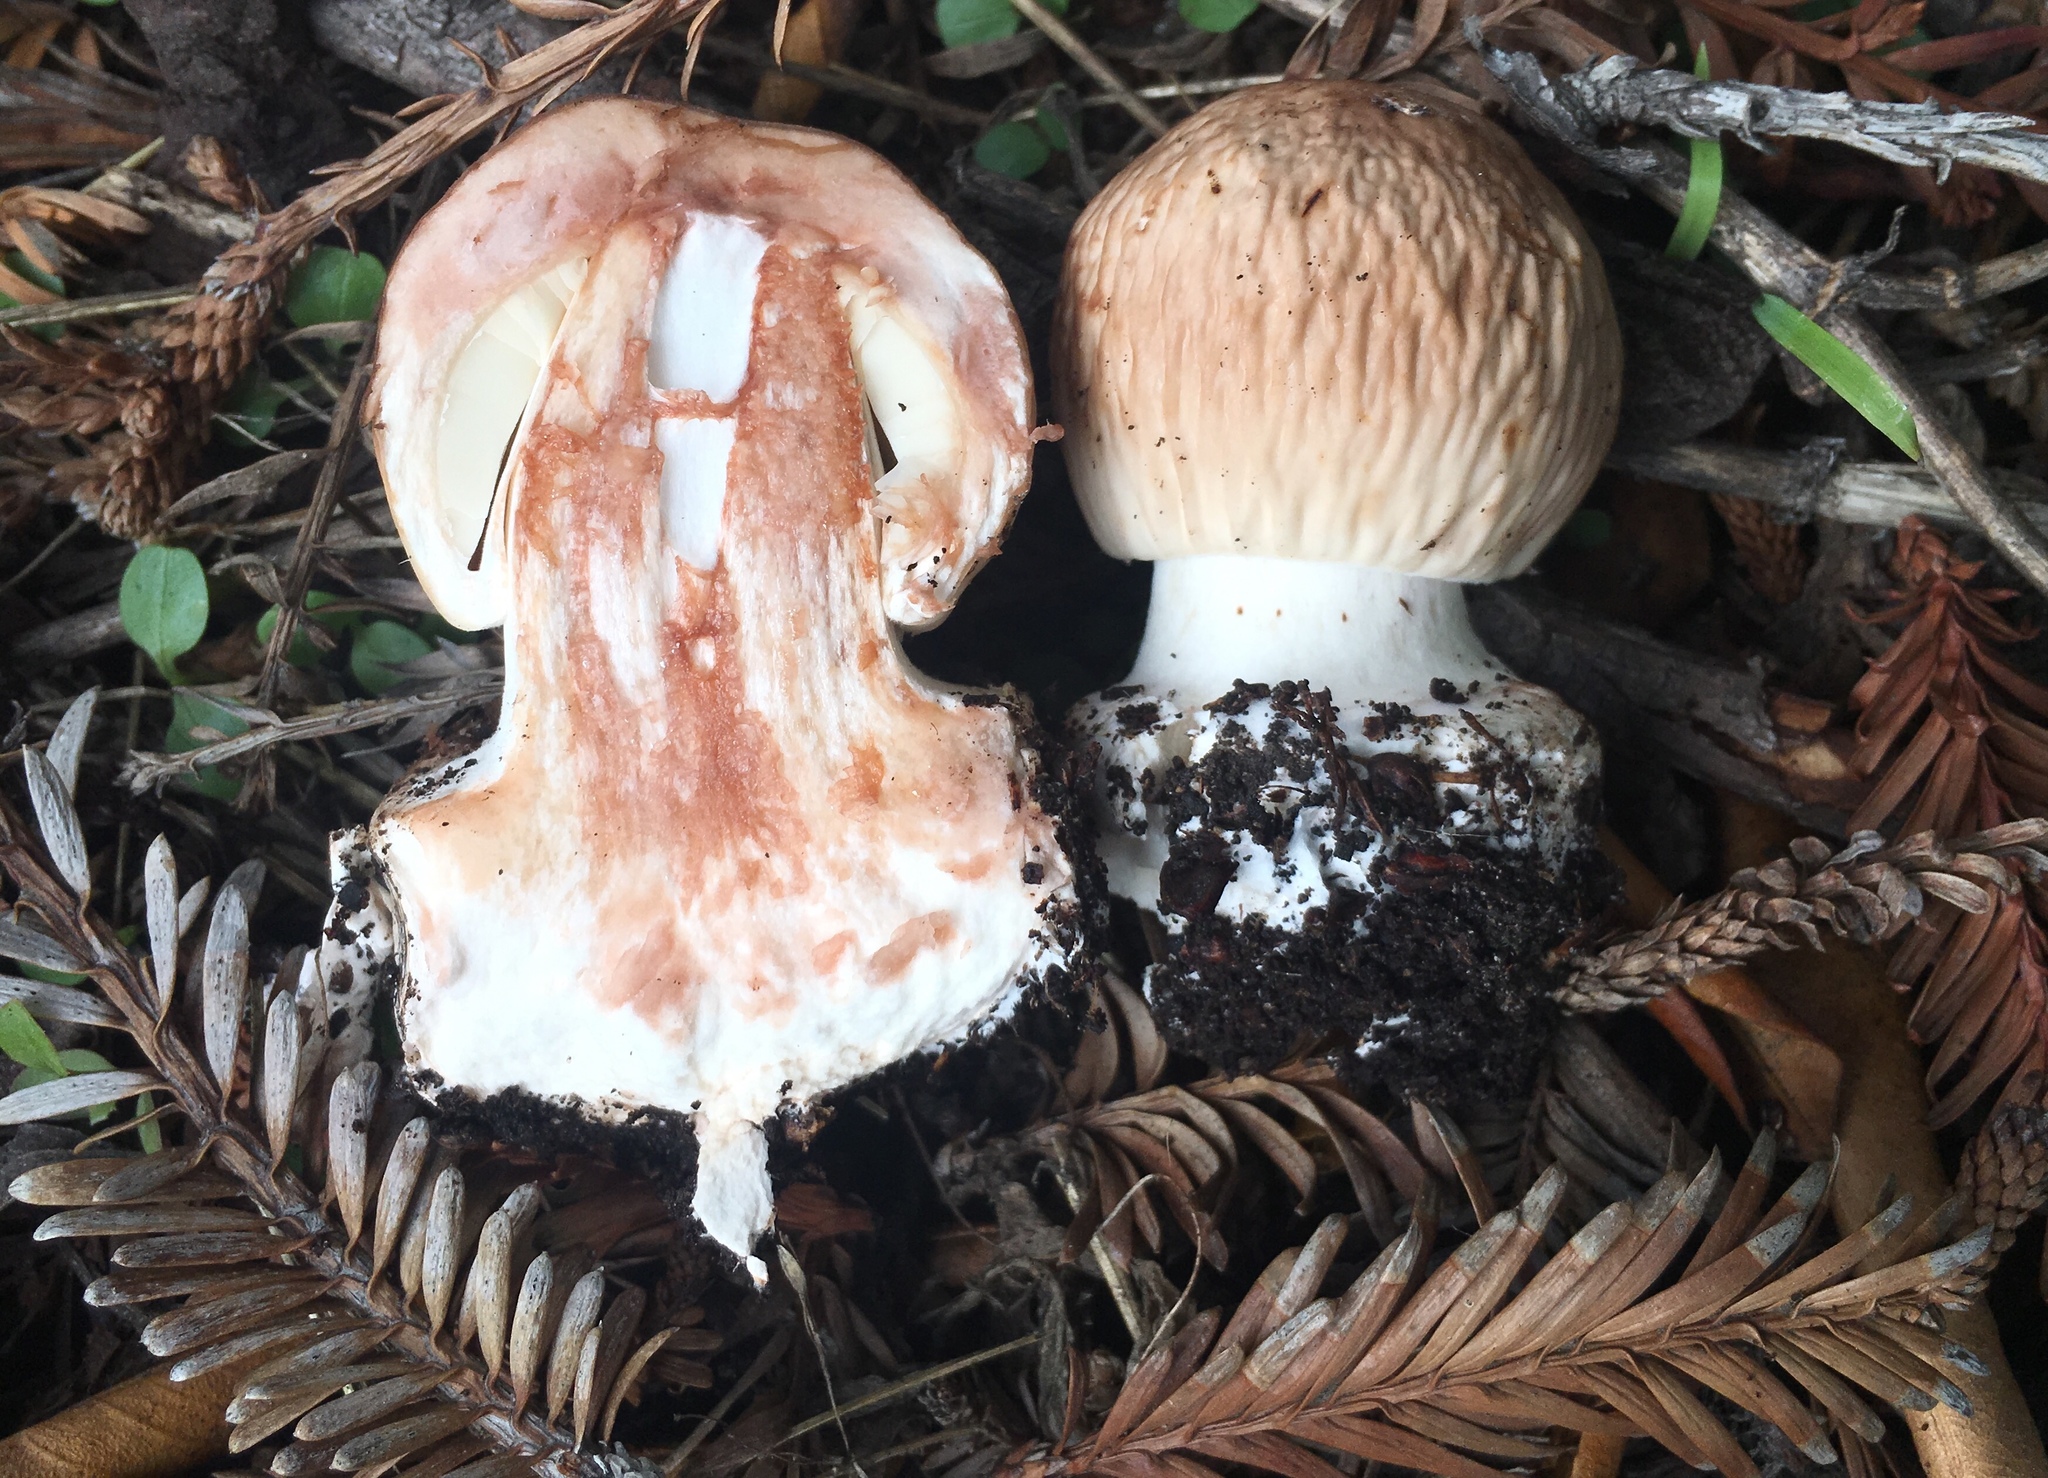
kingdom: Fungi
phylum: Basidiomycota
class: Agaricomycetes
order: Agaricales
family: Agaricaceae
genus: Chlorophyllum
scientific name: Chlorophyllum brunneum
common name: Brown parasol
